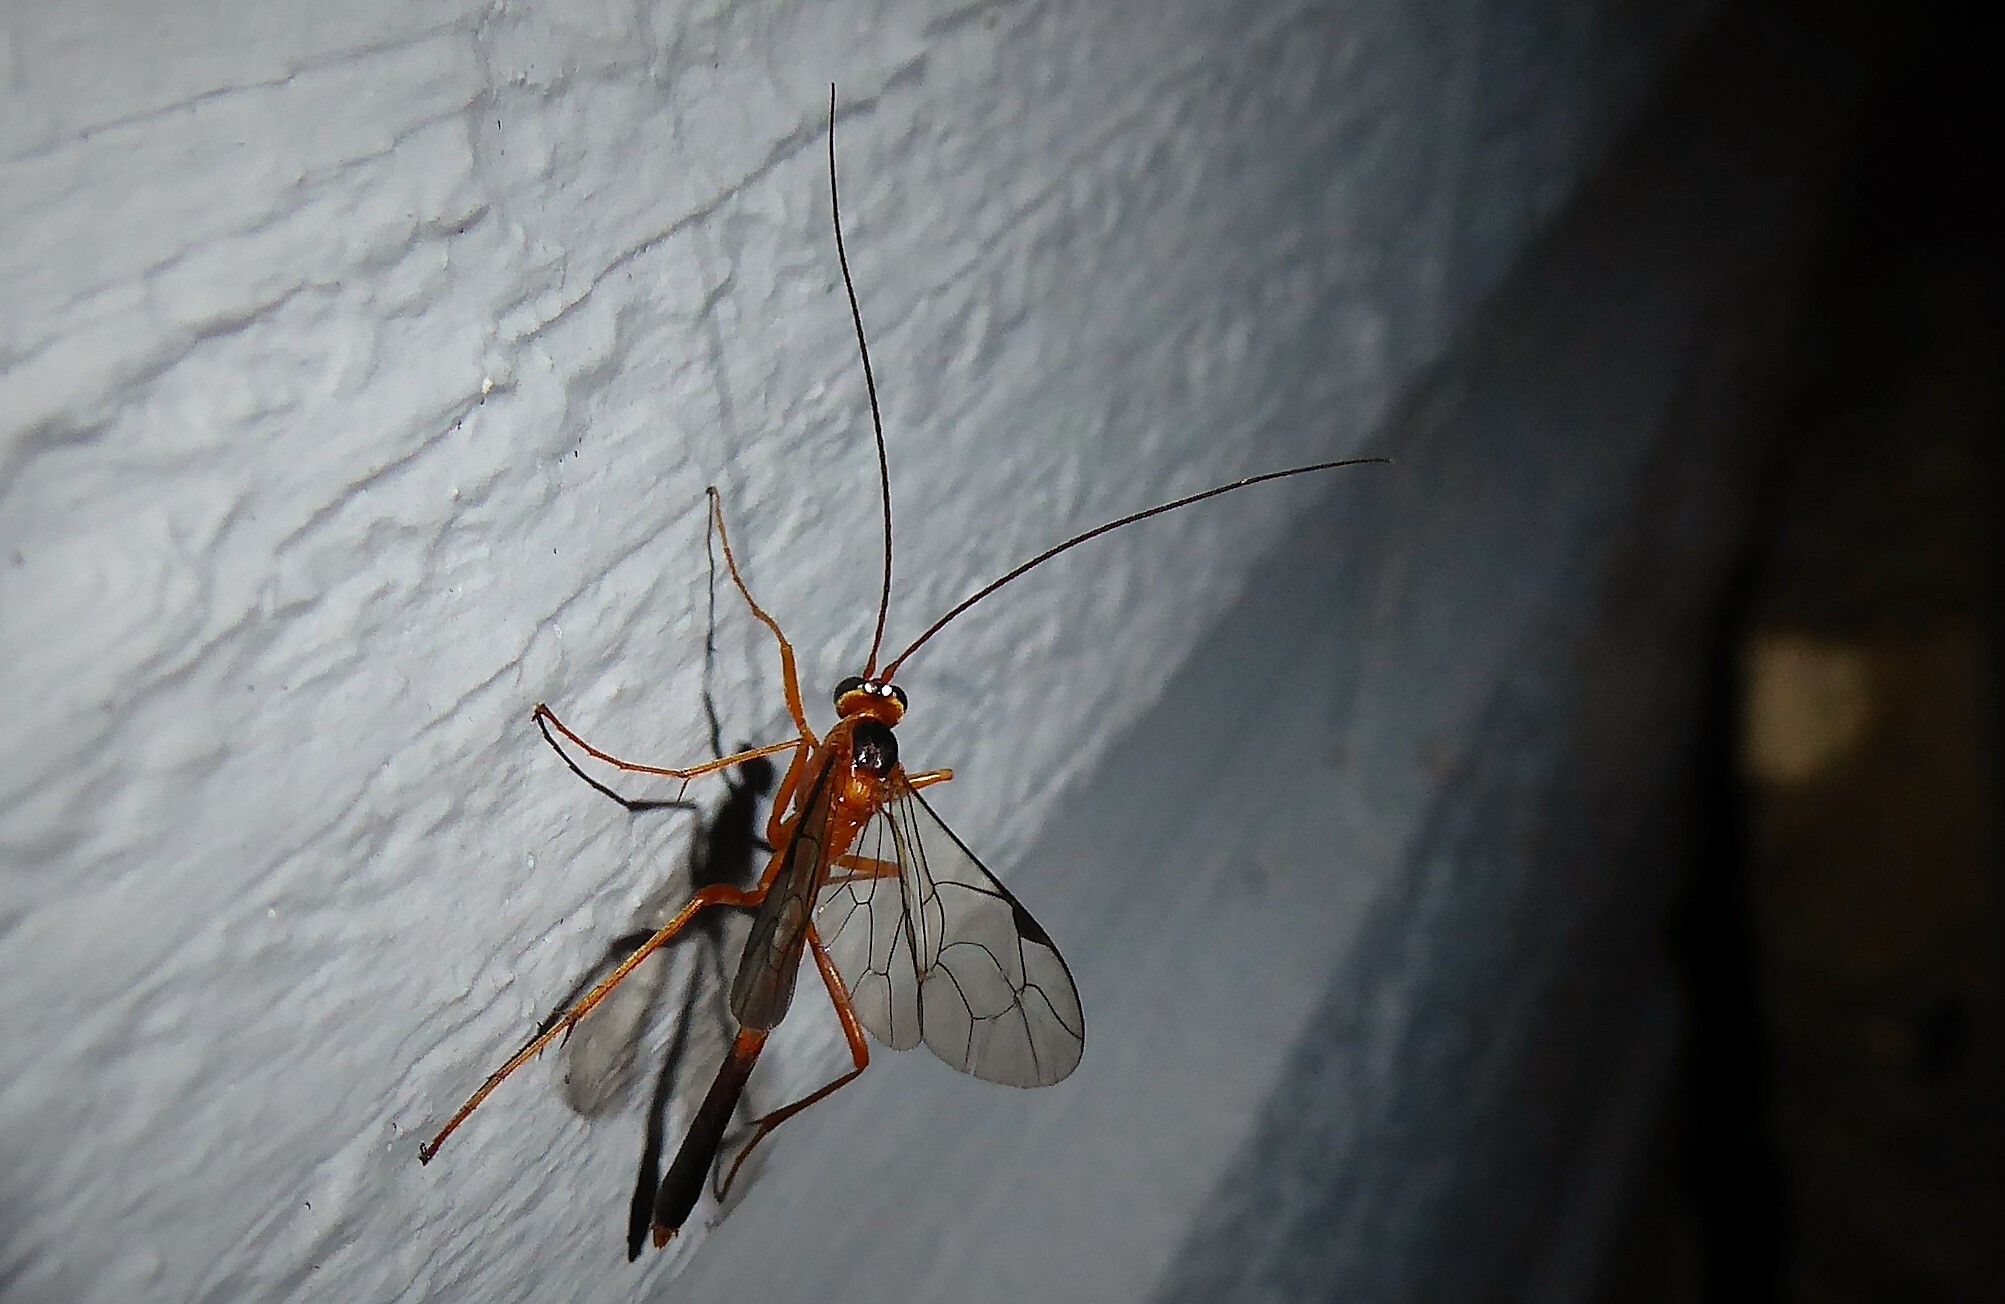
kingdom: Animalia
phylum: Arthropoda
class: Insecta
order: Hymenoptera
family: Ichneumonidae
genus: Netelia
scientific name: Netelia ephippiata
